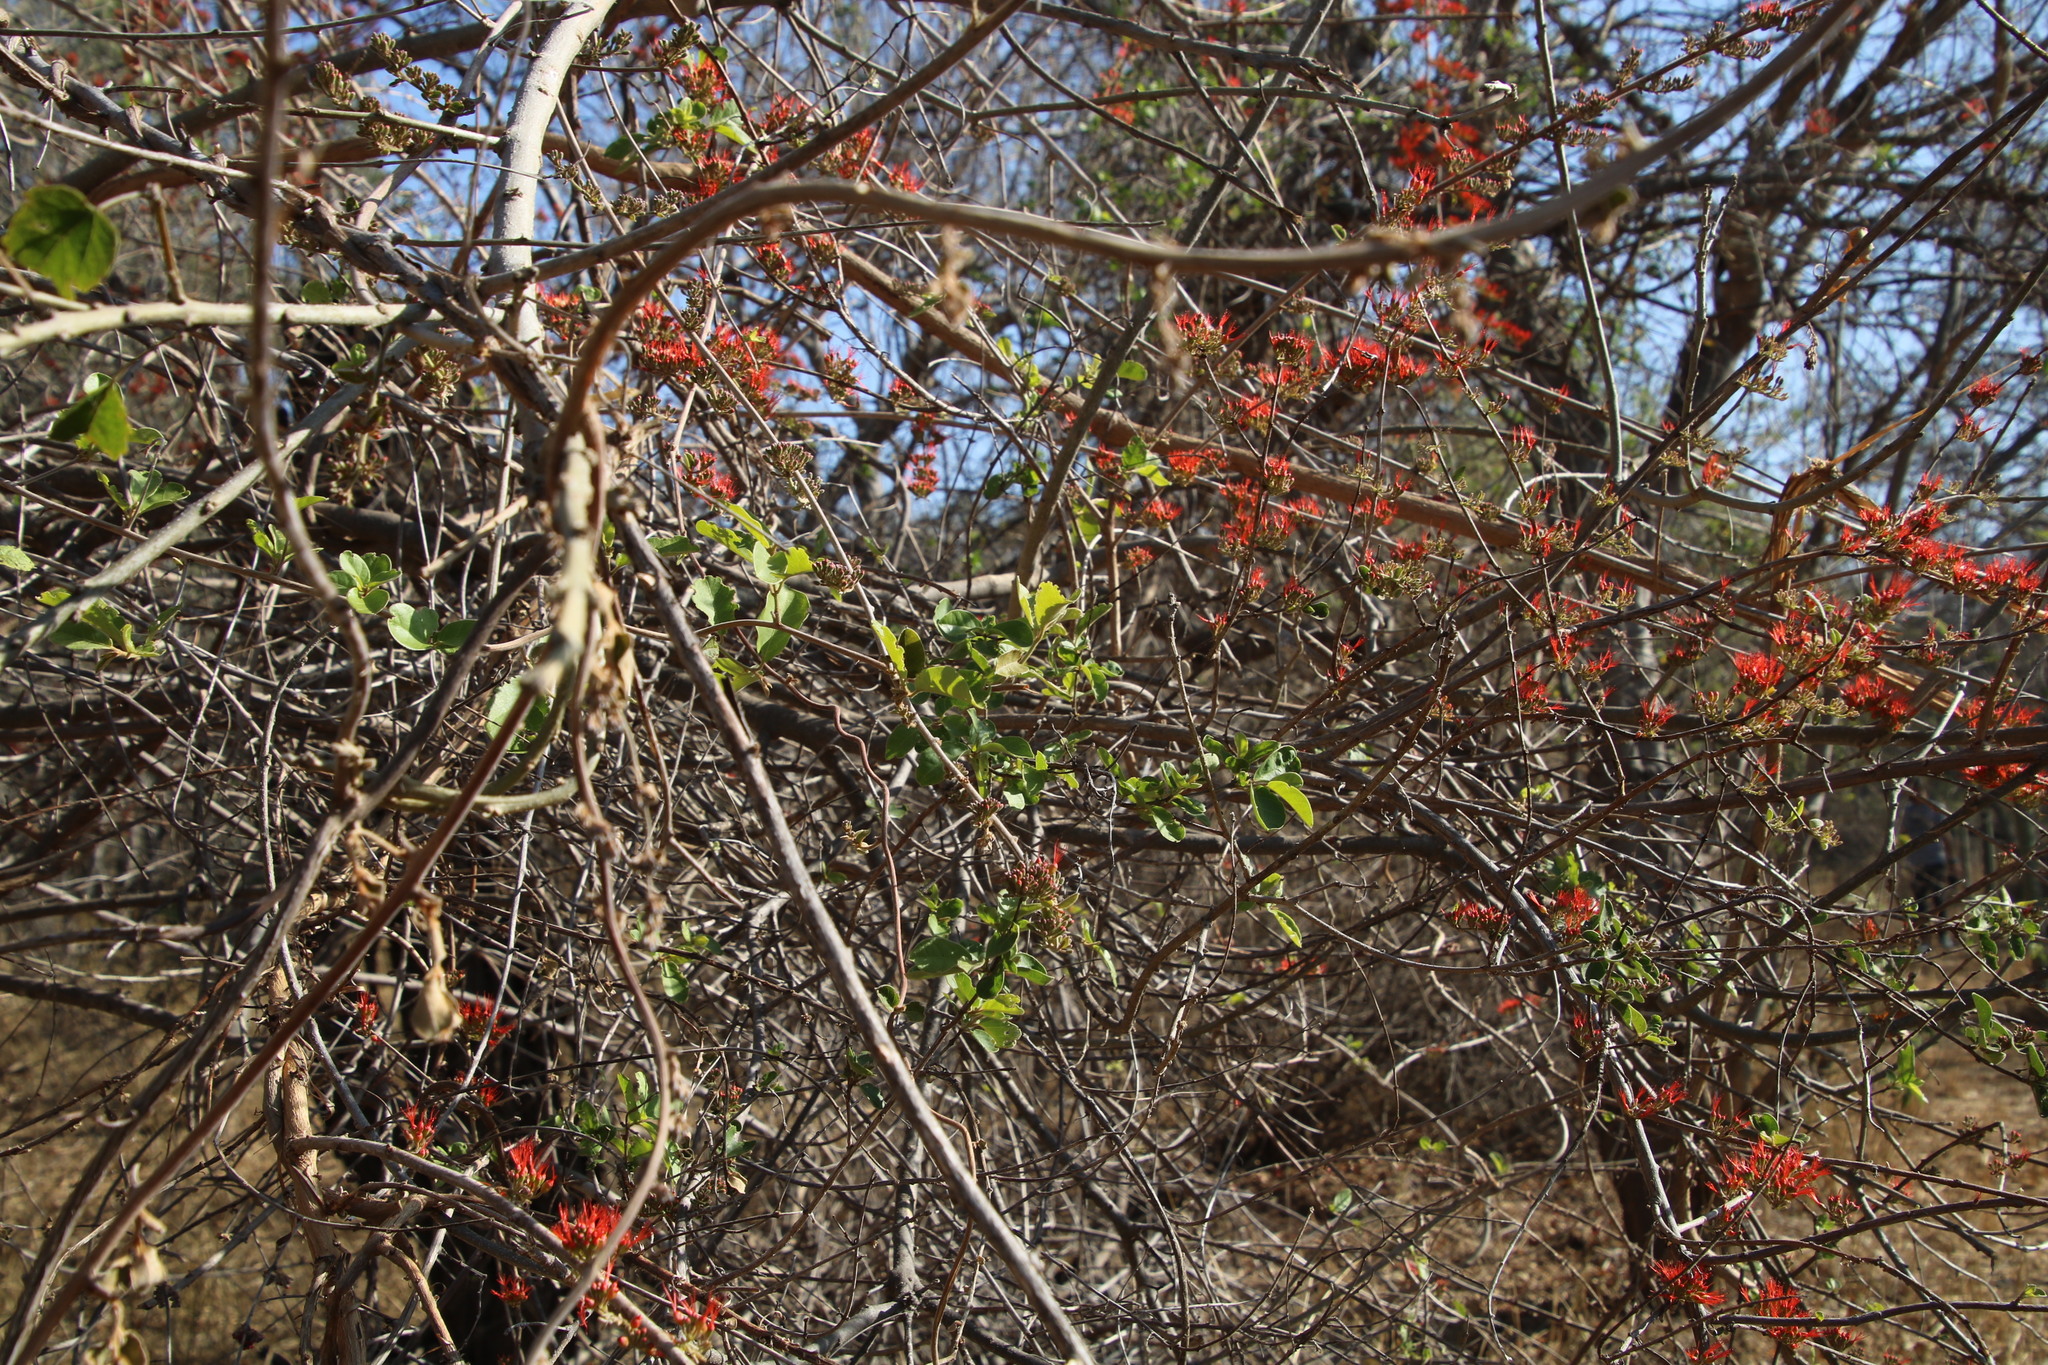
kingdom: Plantae
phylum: Tracheophyta
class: Magnoliopsida
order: Myrtales
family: Combretaceae
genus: Combretum
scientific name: Combretum microphyllum
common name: Burningbush
